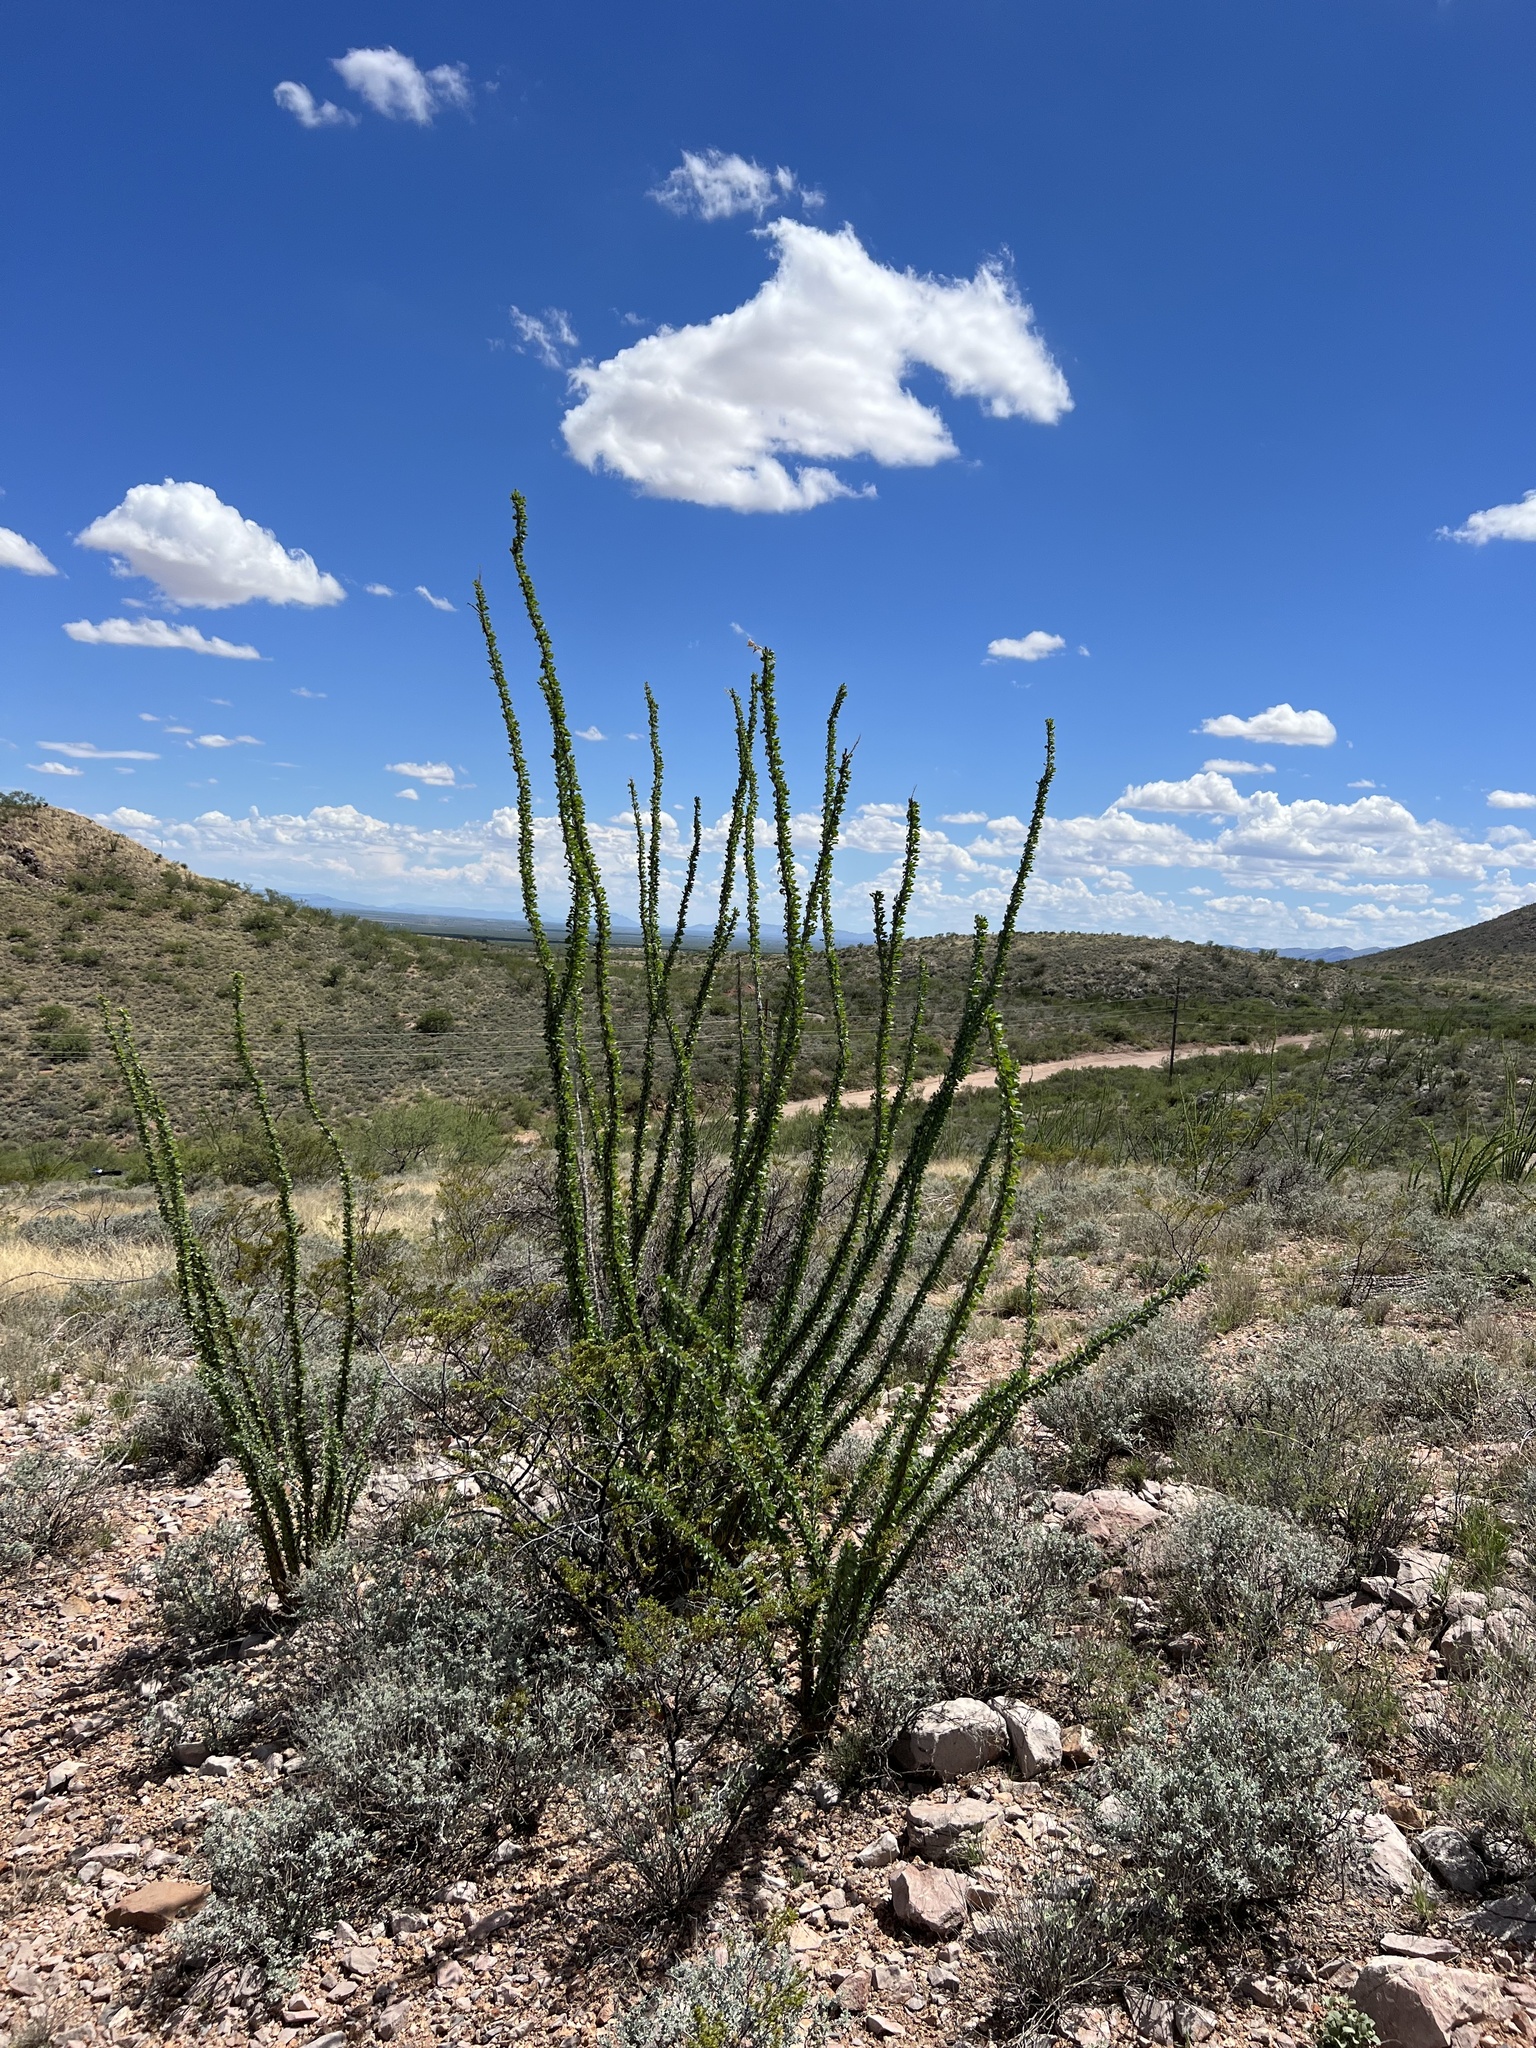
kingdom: Plantae
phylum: Tracheophyta
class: Magnoliopsida
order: Ericales
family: Fouquieriaceae
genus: Fouquieria
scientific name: Fouquieria splendens
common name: Vine-cactus
